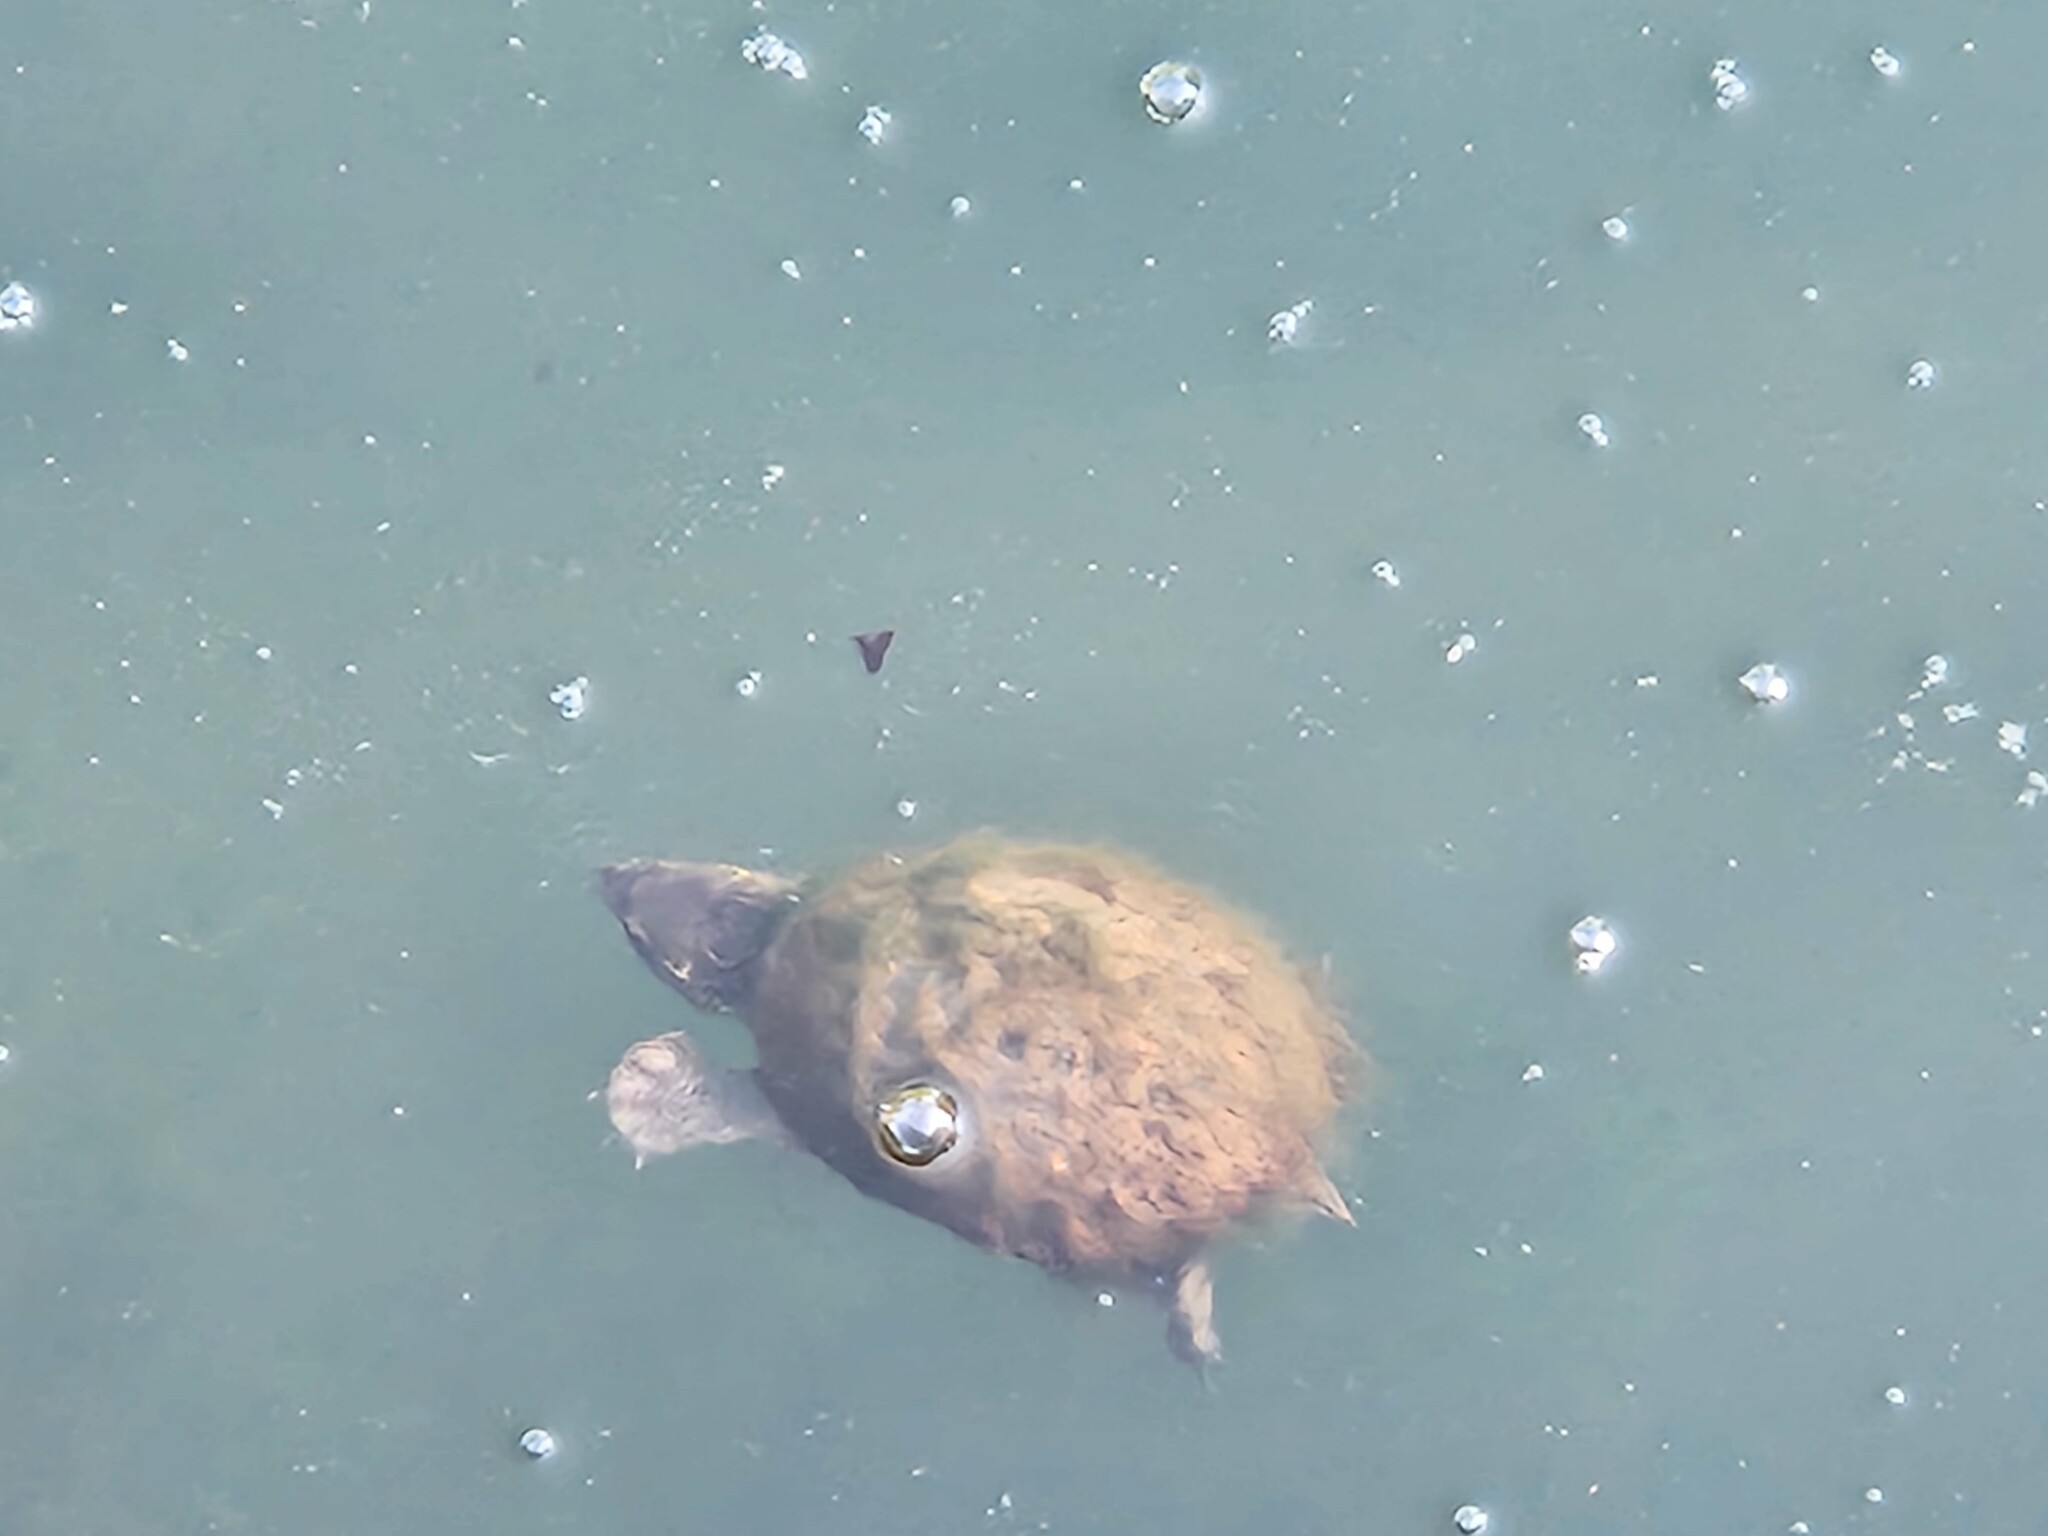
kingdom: Animalia
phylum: Chordata
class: Testudines
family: Kinosternidae
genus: Sternotherus
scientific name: Sternotherus odoratus
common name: Common musk turtle
